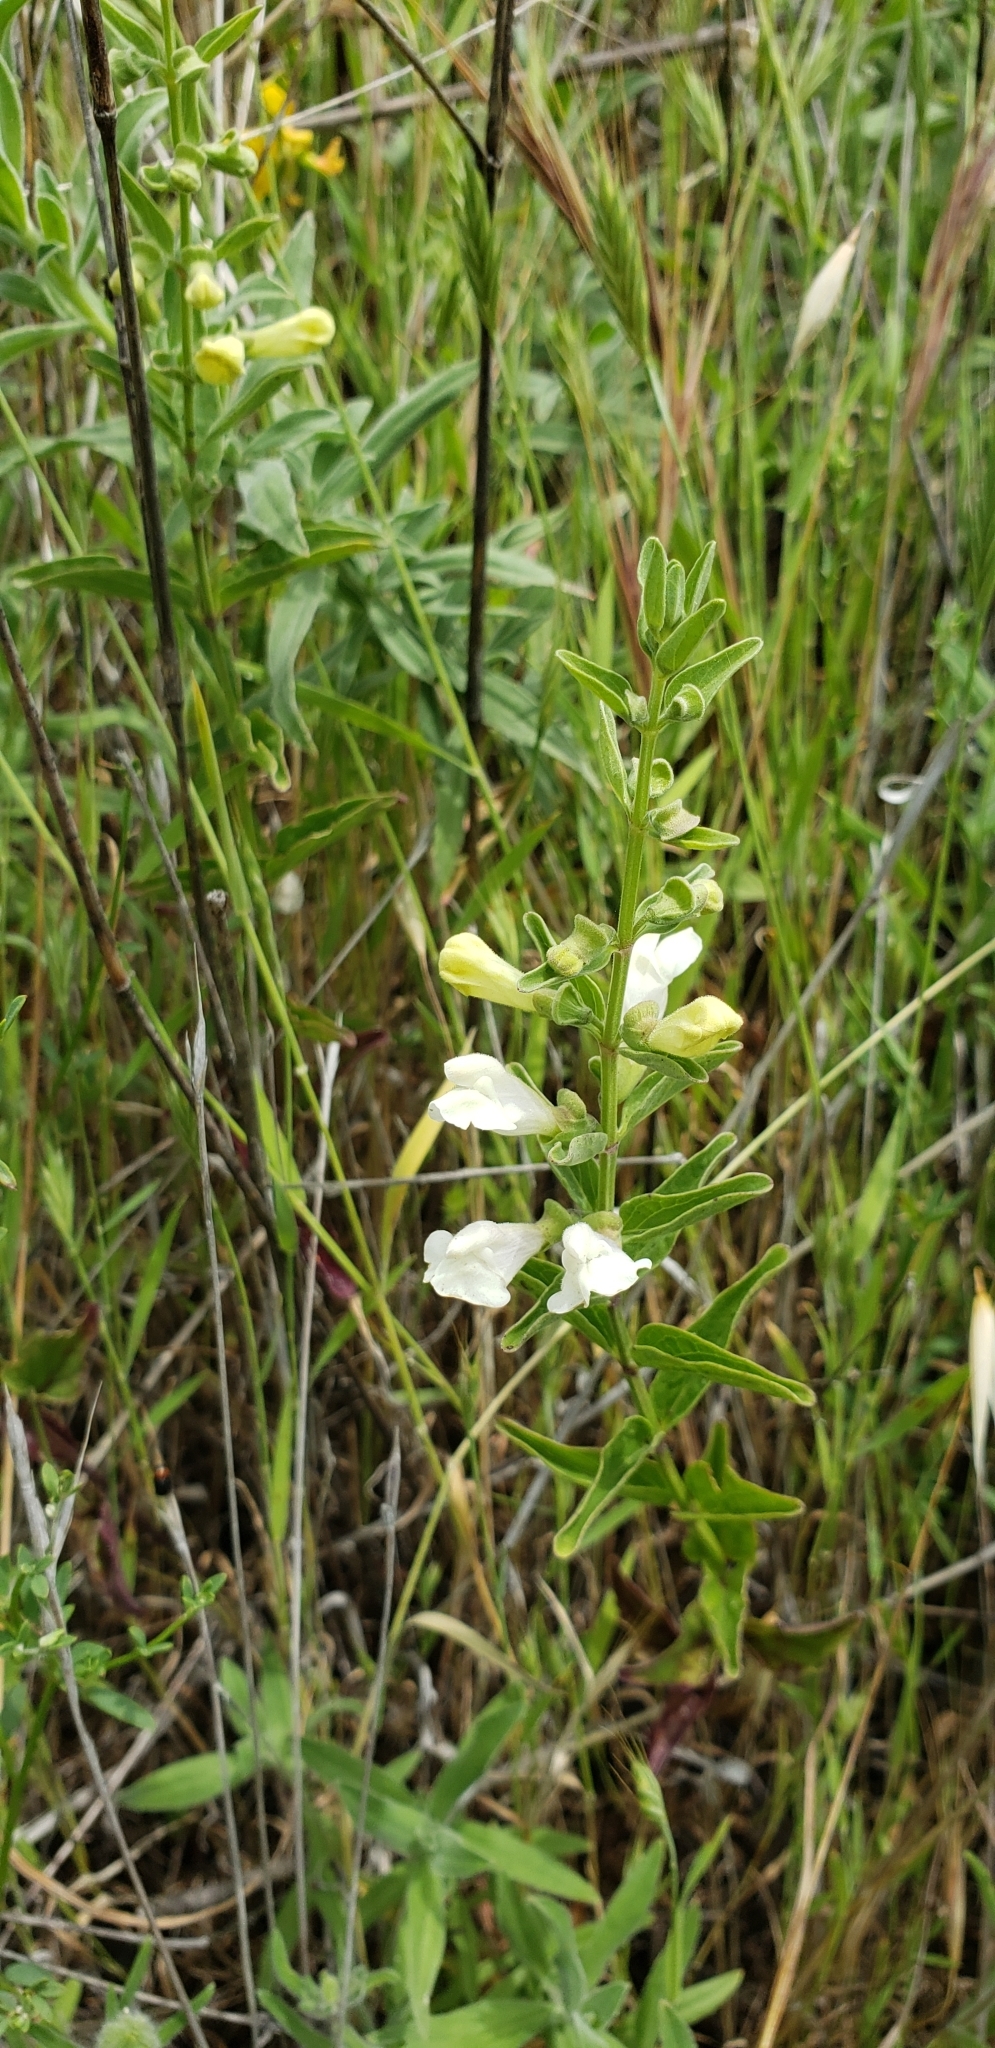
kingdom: Plantae
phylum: Tracheophyta
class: Magnoliopsida
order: Lamiales
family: Lamiaceae
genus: Scutellaria
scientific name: Scutellaria californica
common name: California scullcap
